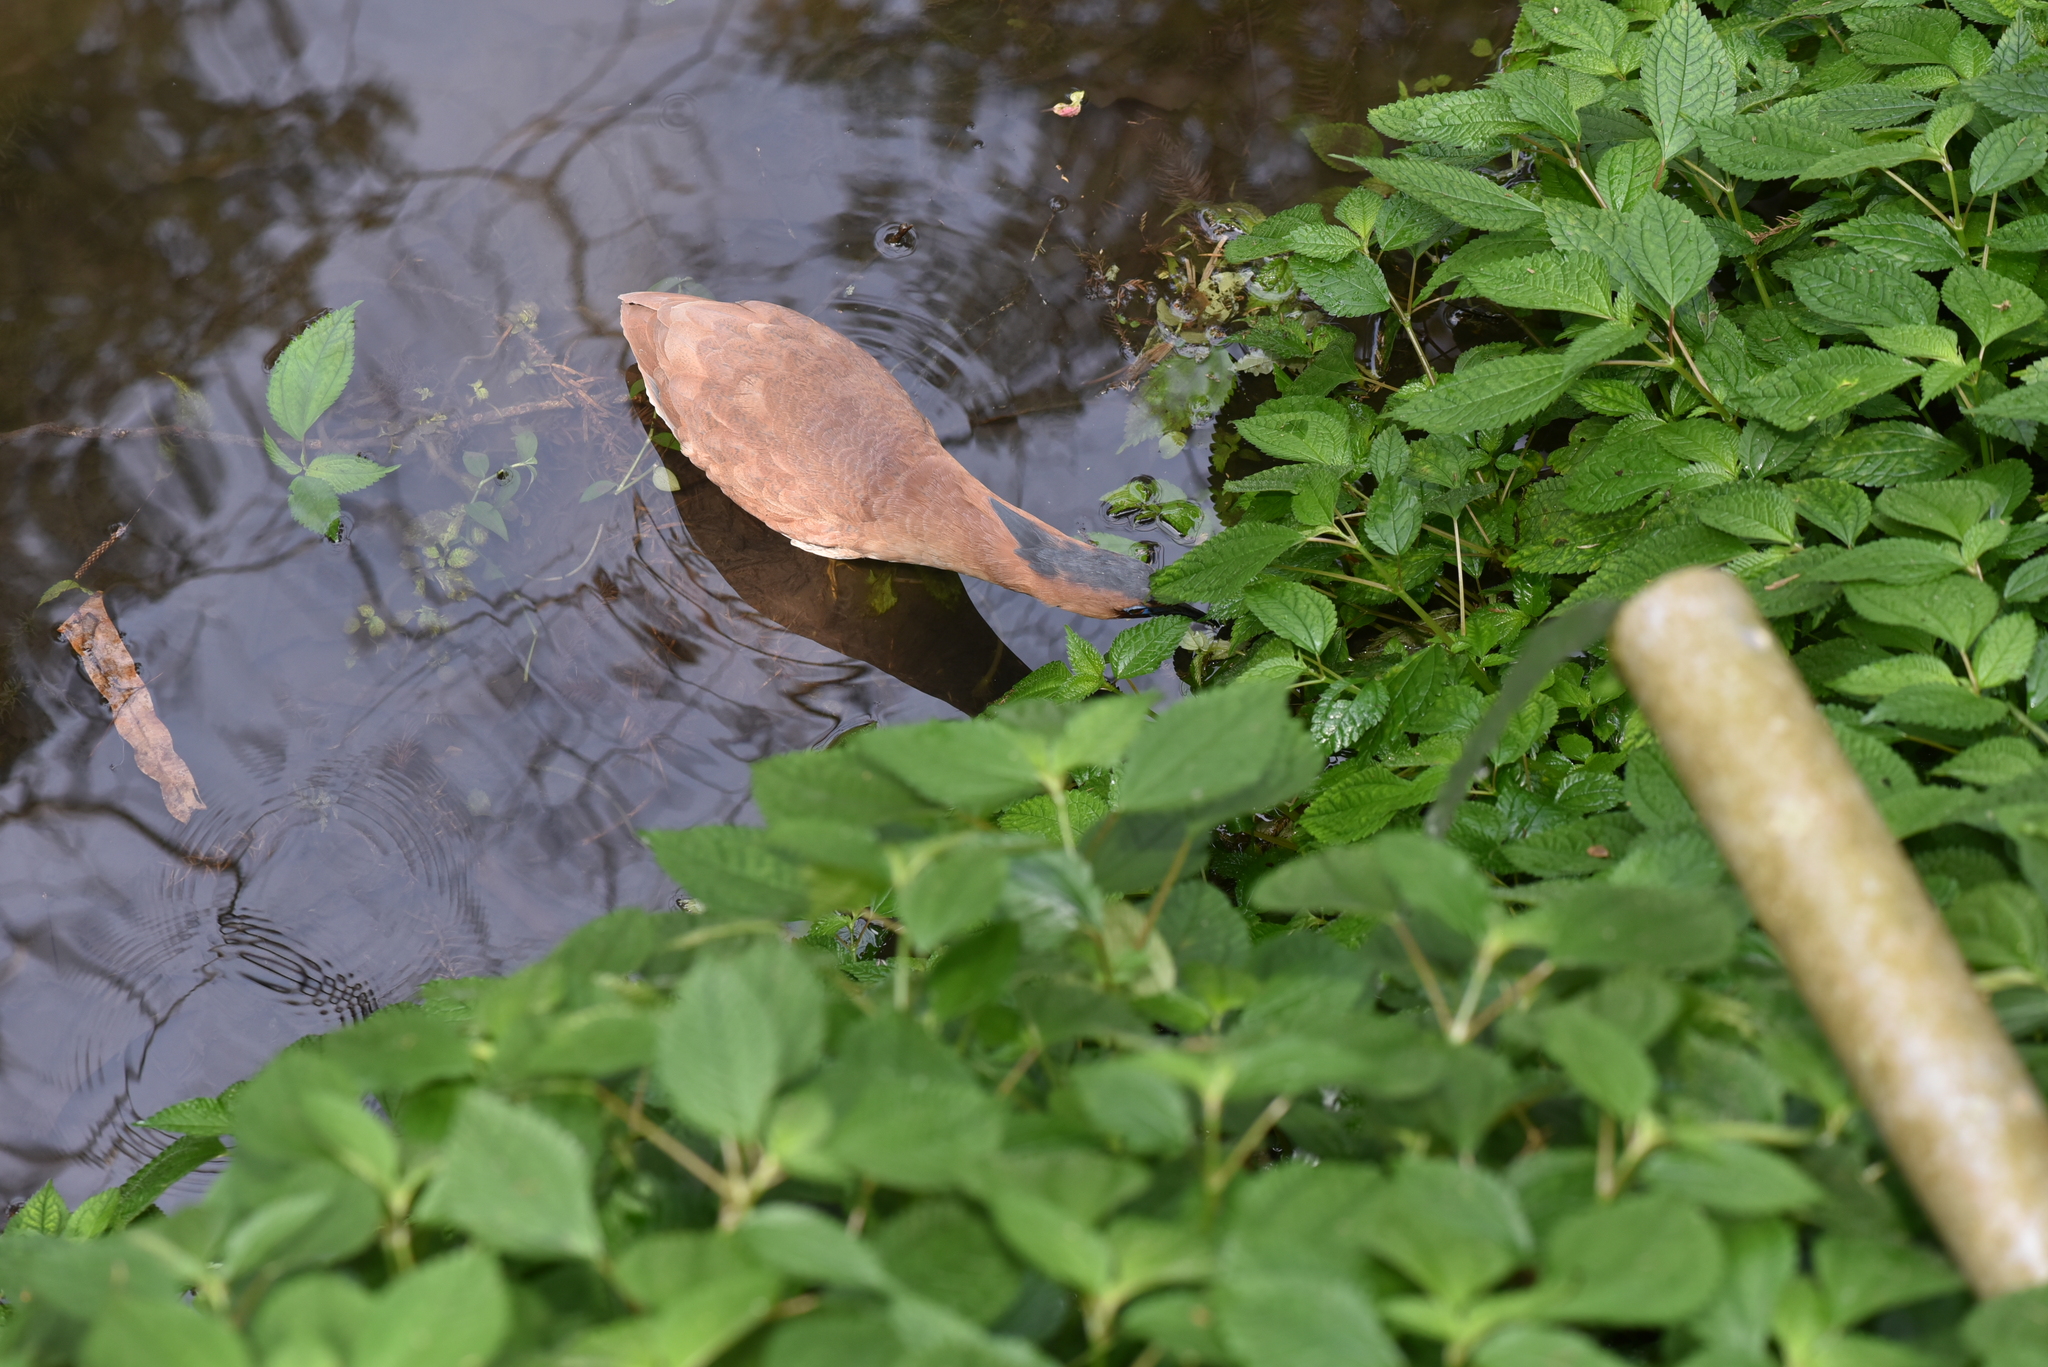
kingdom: Animalia
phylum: Chordata
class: Aves
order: Pelecaniformes
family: Ardeidae
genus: Gorsachius
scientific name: Gorsachius melanolophus
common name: Malayan night heron
